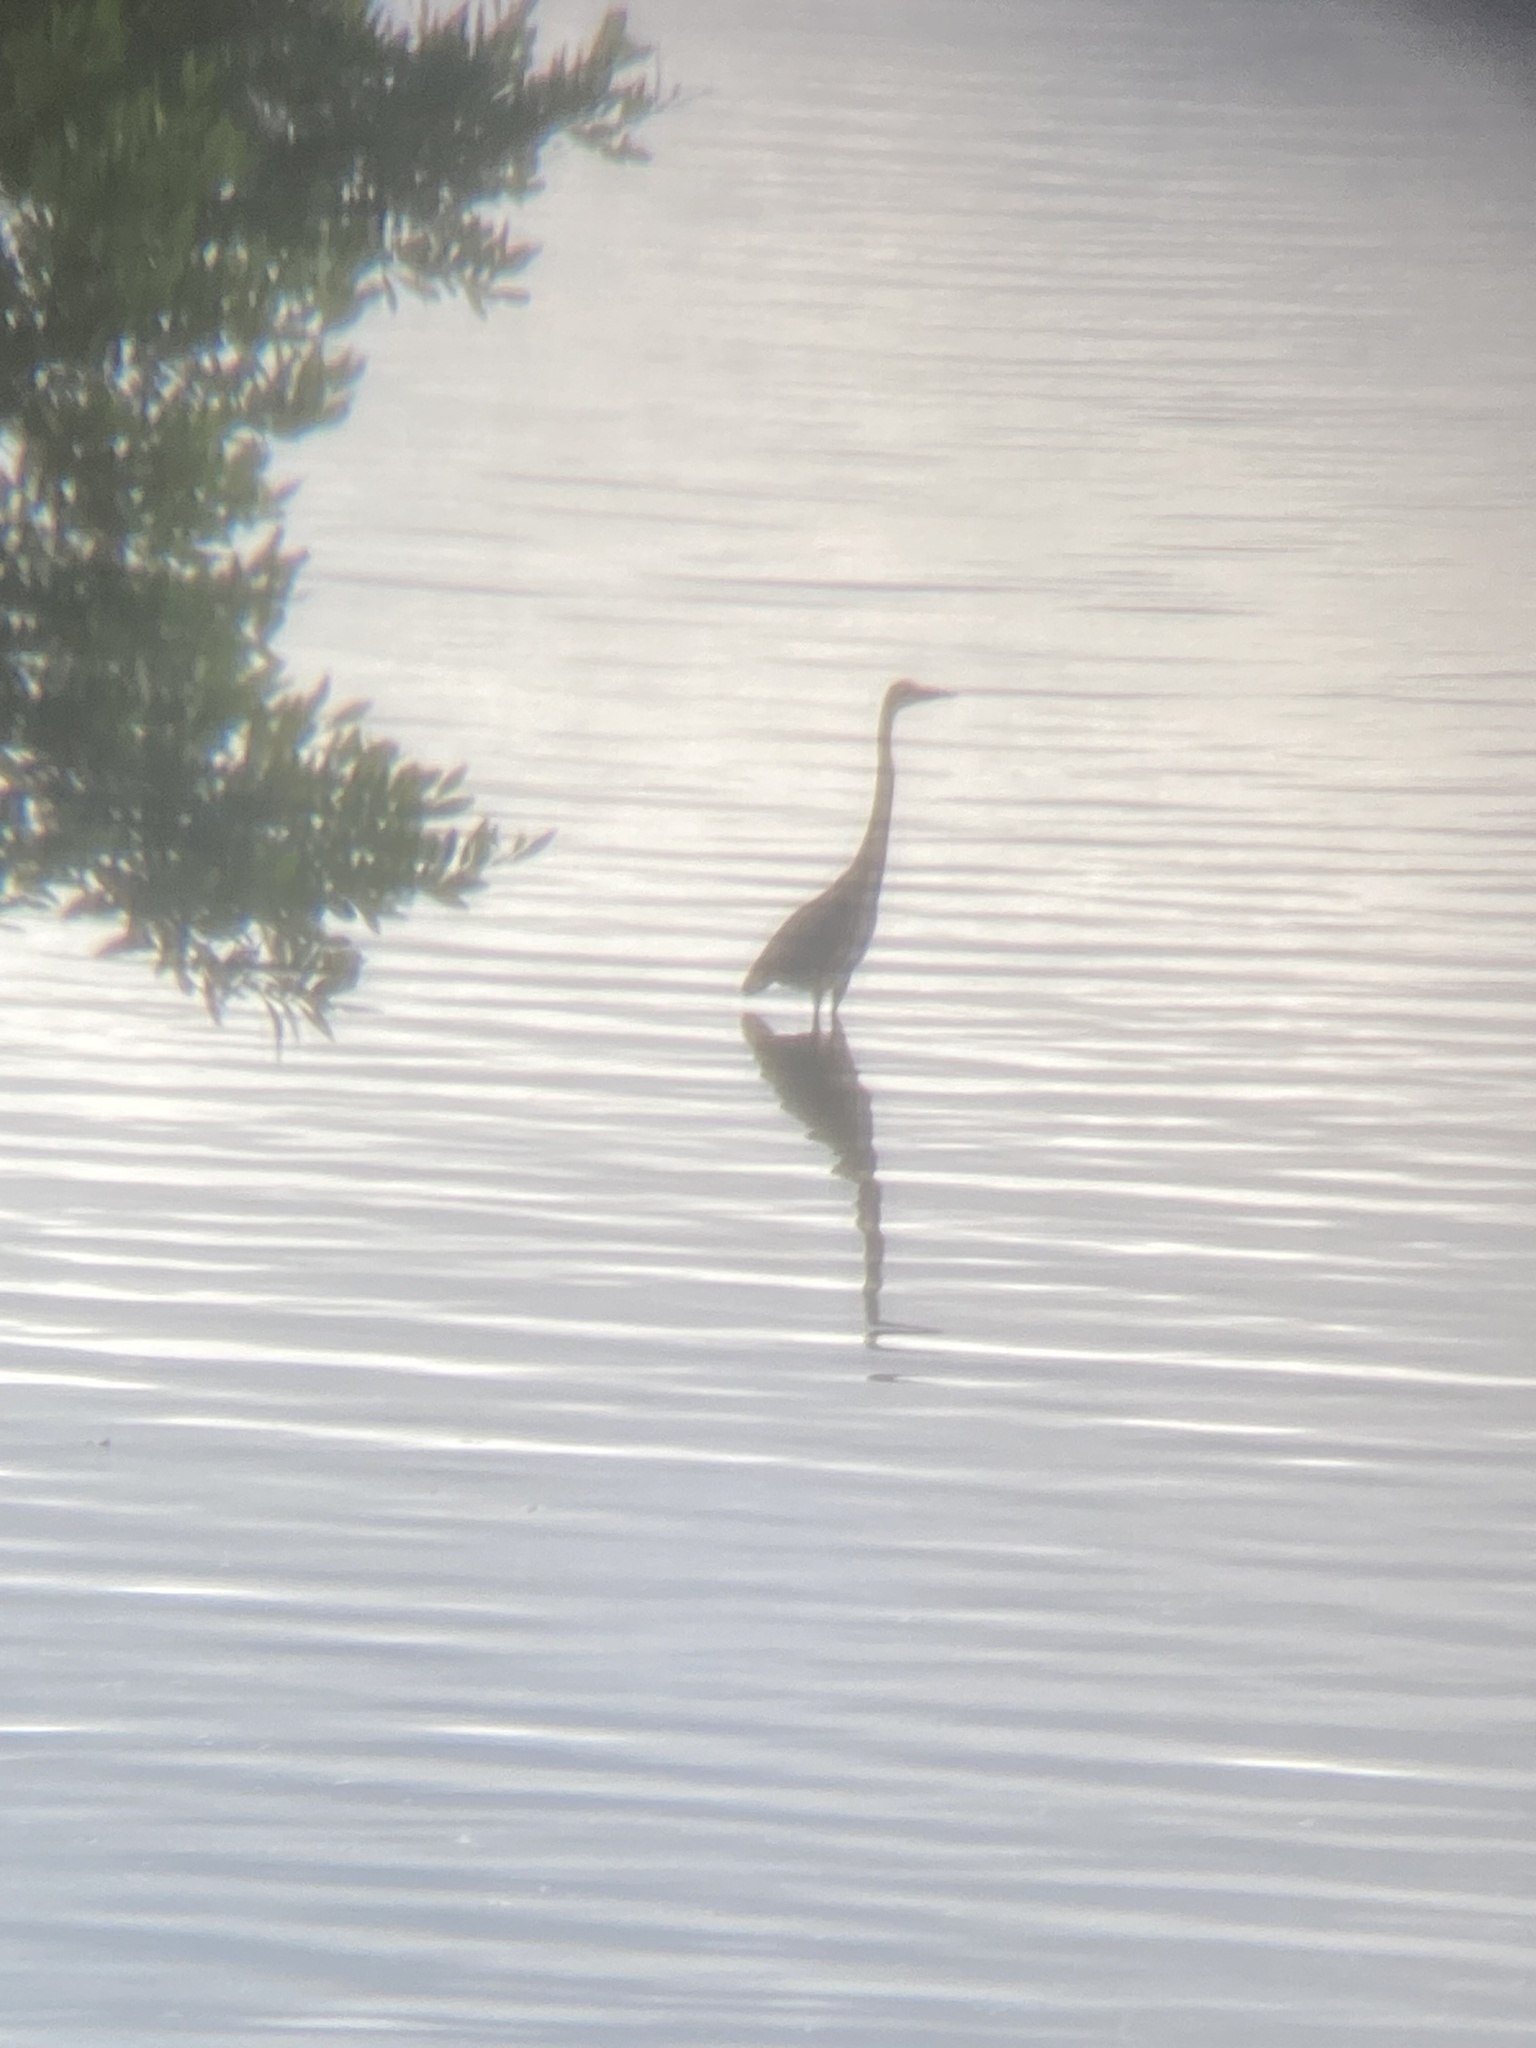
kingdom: Animalia
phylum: Chordata
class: Aves
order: Pelecaniformes
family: Ardeidae
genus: Ardea
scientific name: Ardea herodias
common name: Great blue heron
